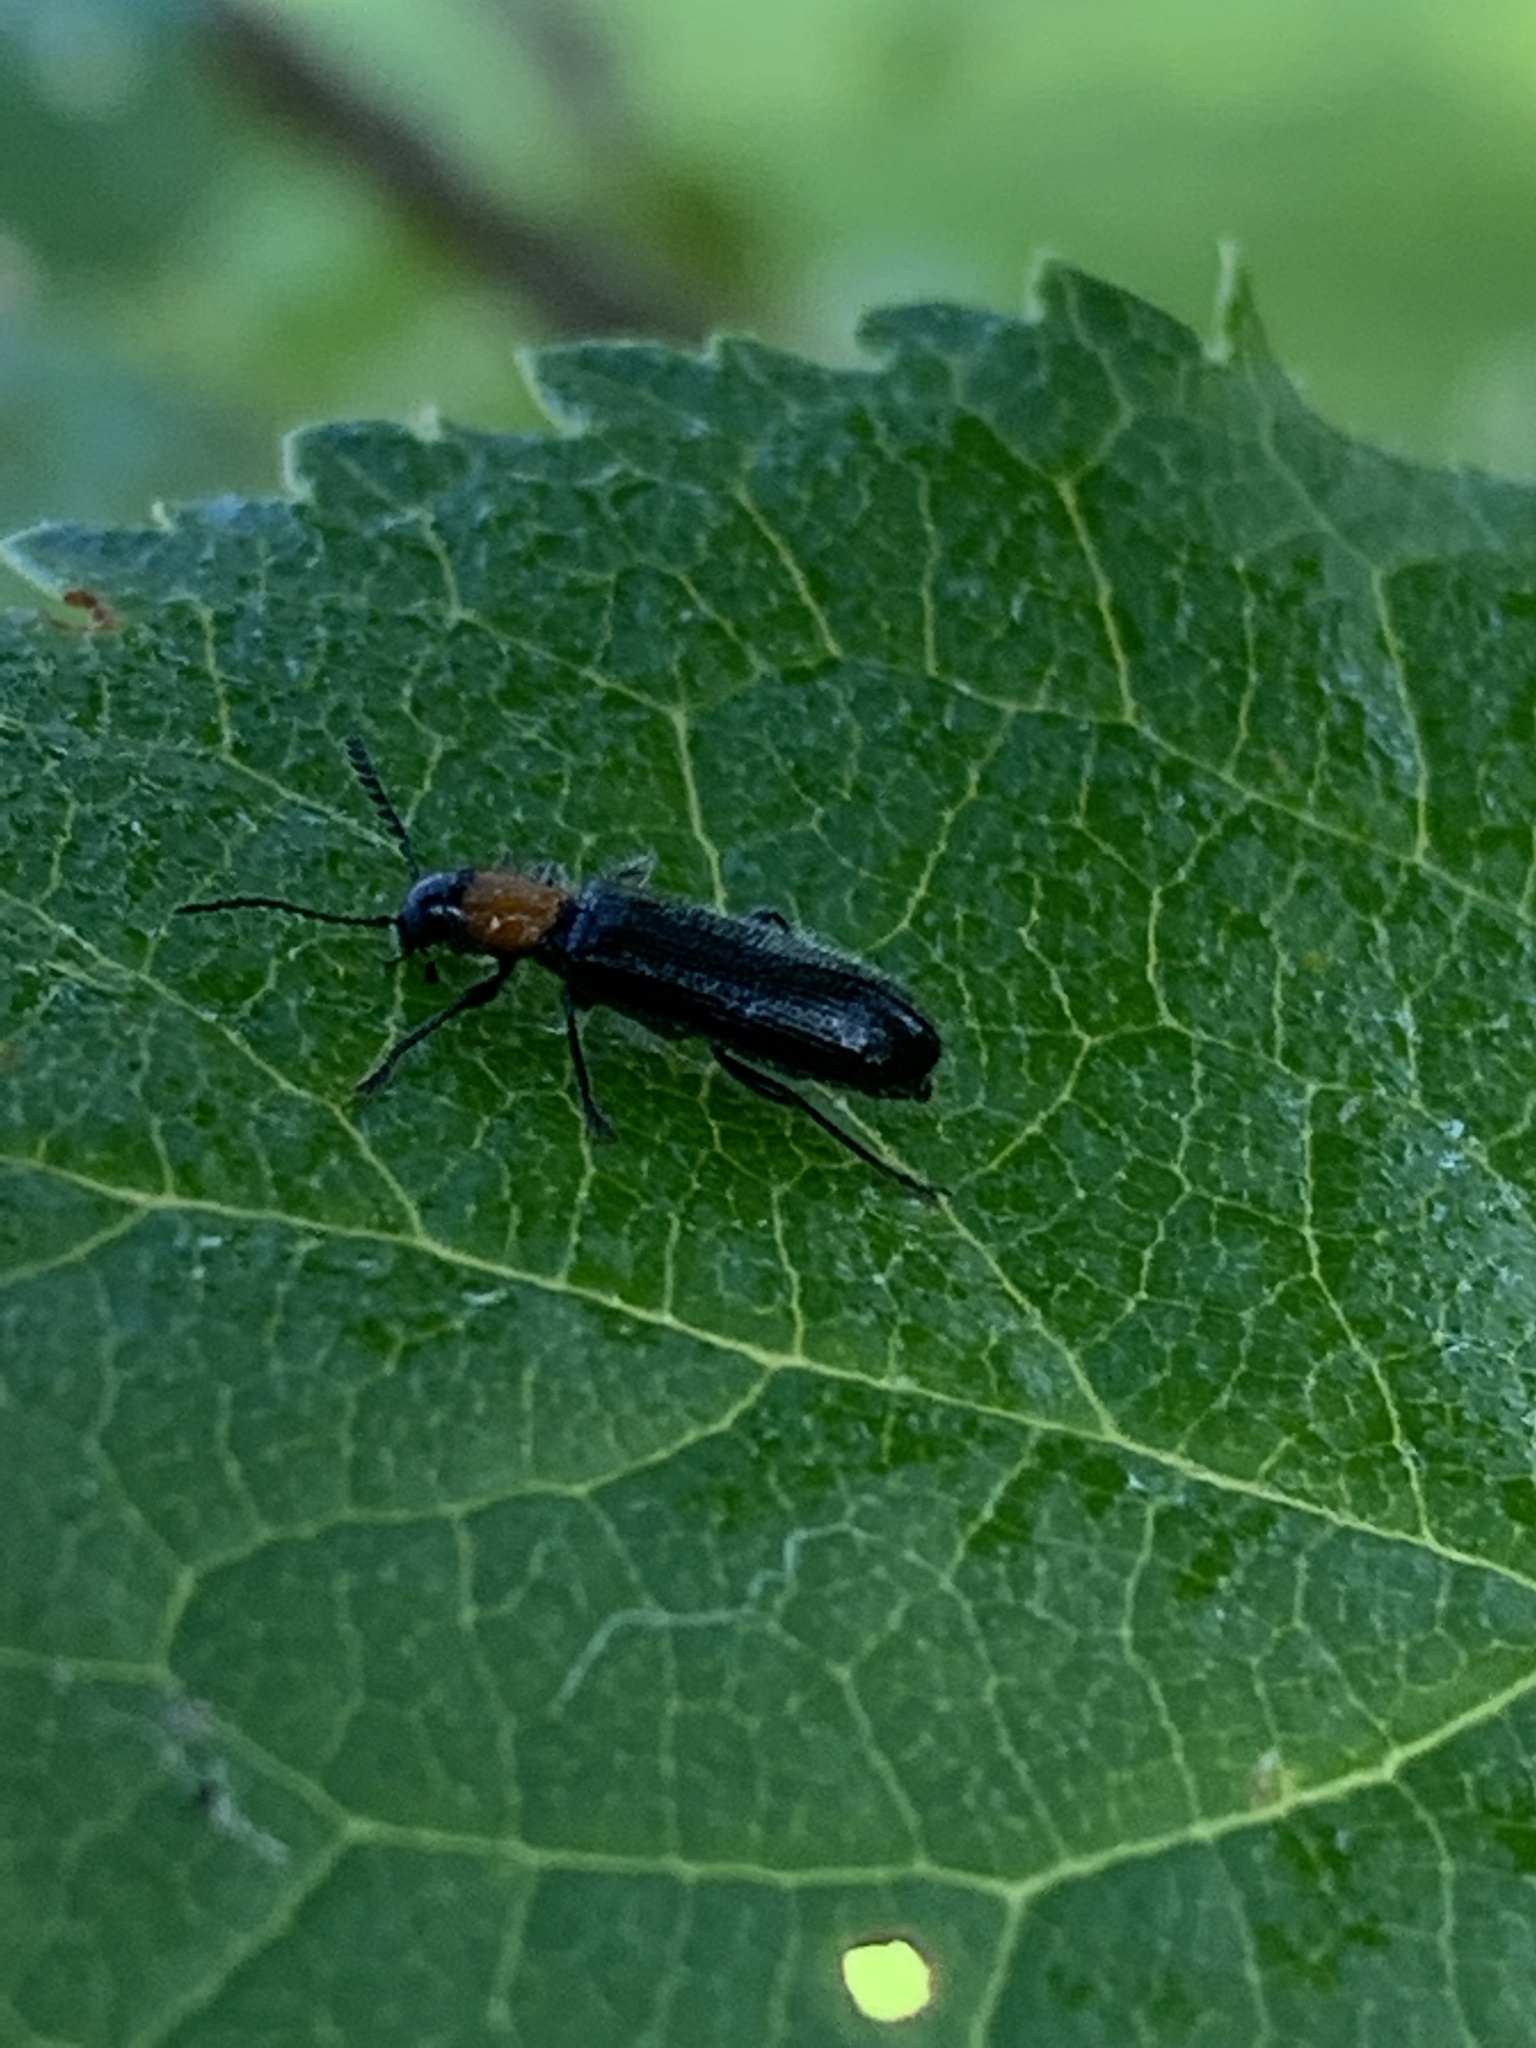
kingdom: Animalia
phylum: Arthropoda
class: Insecta
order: Coleoptera
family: Cleridae
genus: Tillus
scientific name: Tillus elongatus
